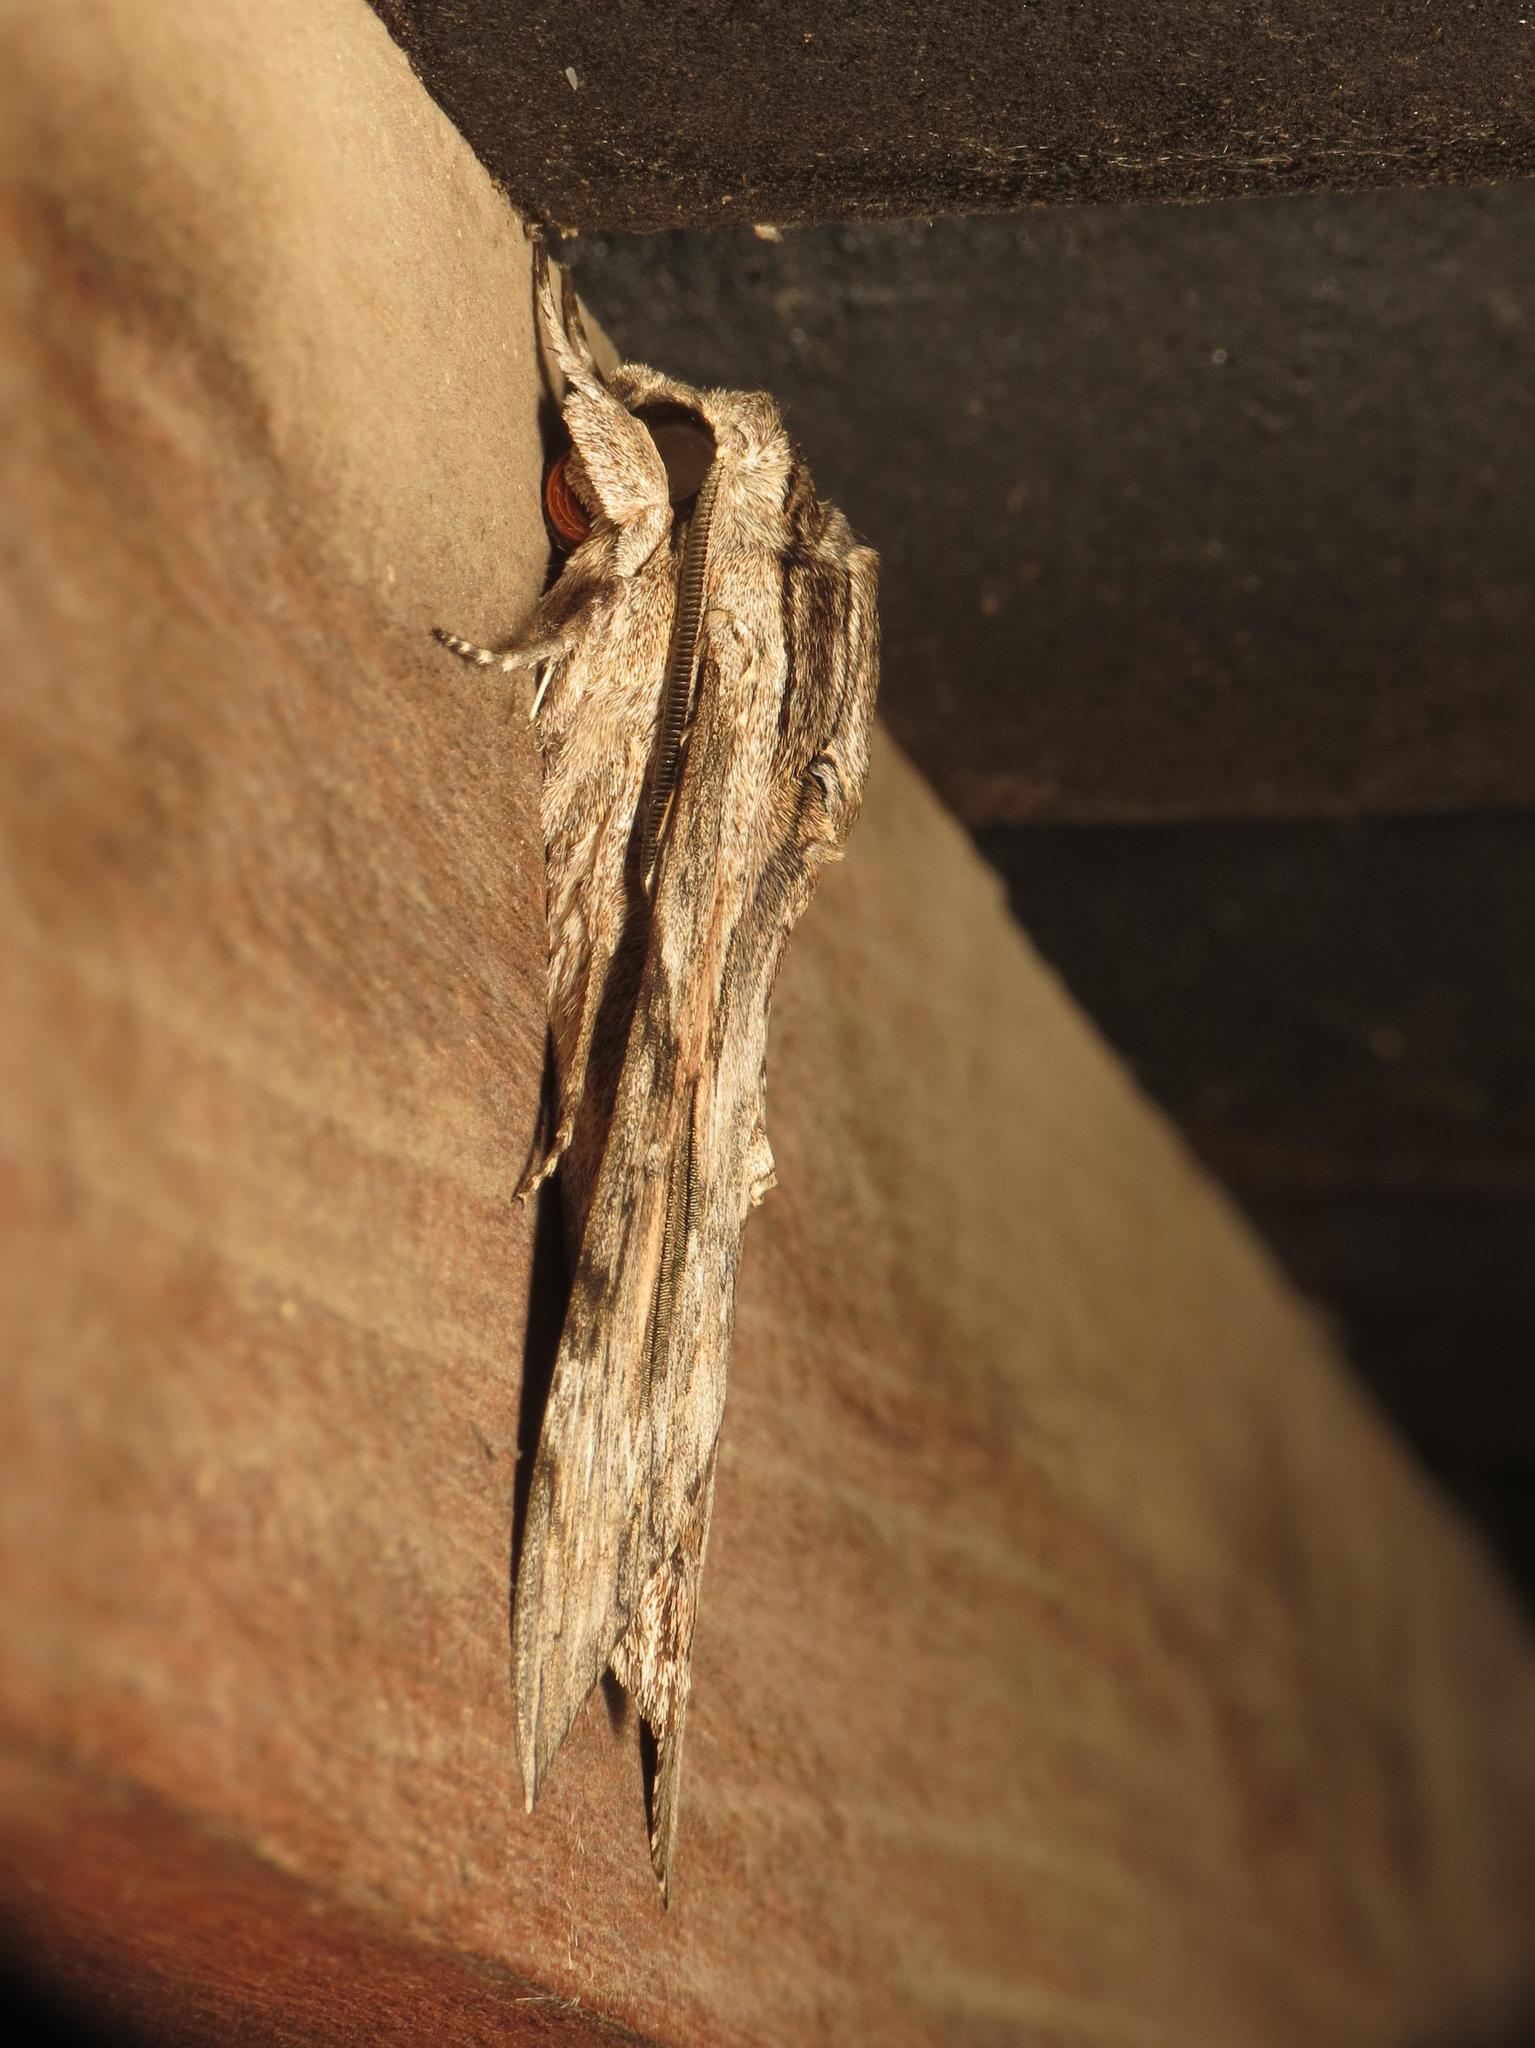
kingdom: Animalia
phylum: Arthropoda
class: Insecta
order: Lepidoptera
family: Sphingidae
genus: Agrius
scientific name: Agrius convolvuli
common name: Convolvulus hawkmoth
